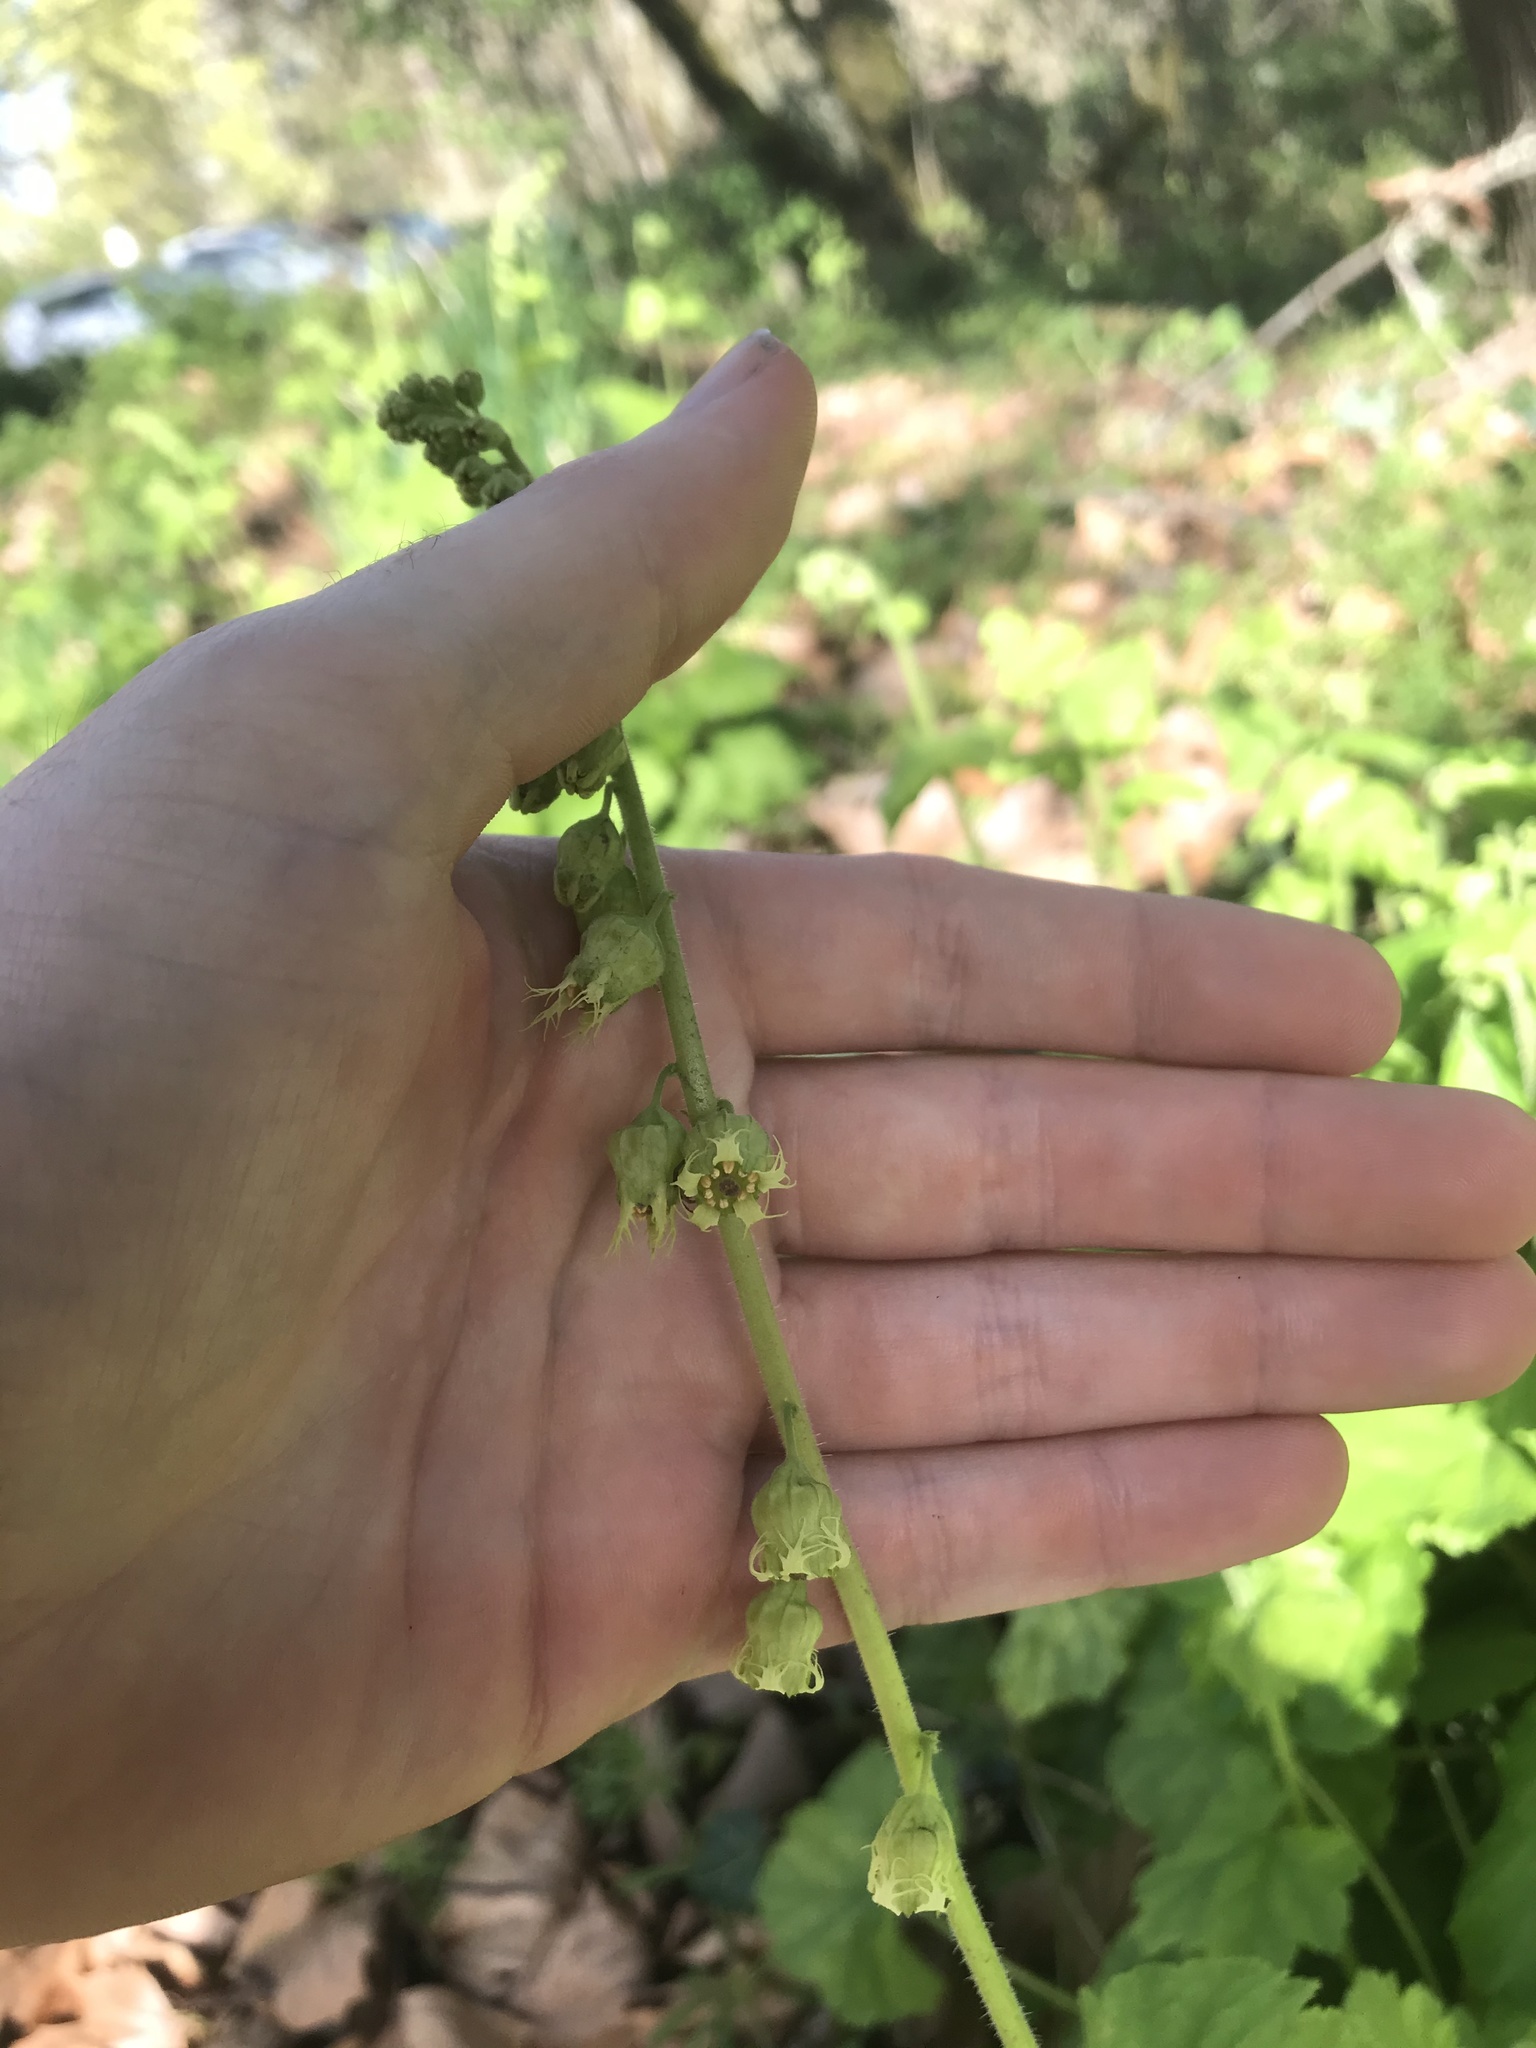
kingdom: Plantae
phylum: Tracheophyta
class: Magnoliopsida
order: Saxifragales
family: Saxifragaceae
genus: Tellima
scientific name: Tellima grandiflora
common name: Fringecups
